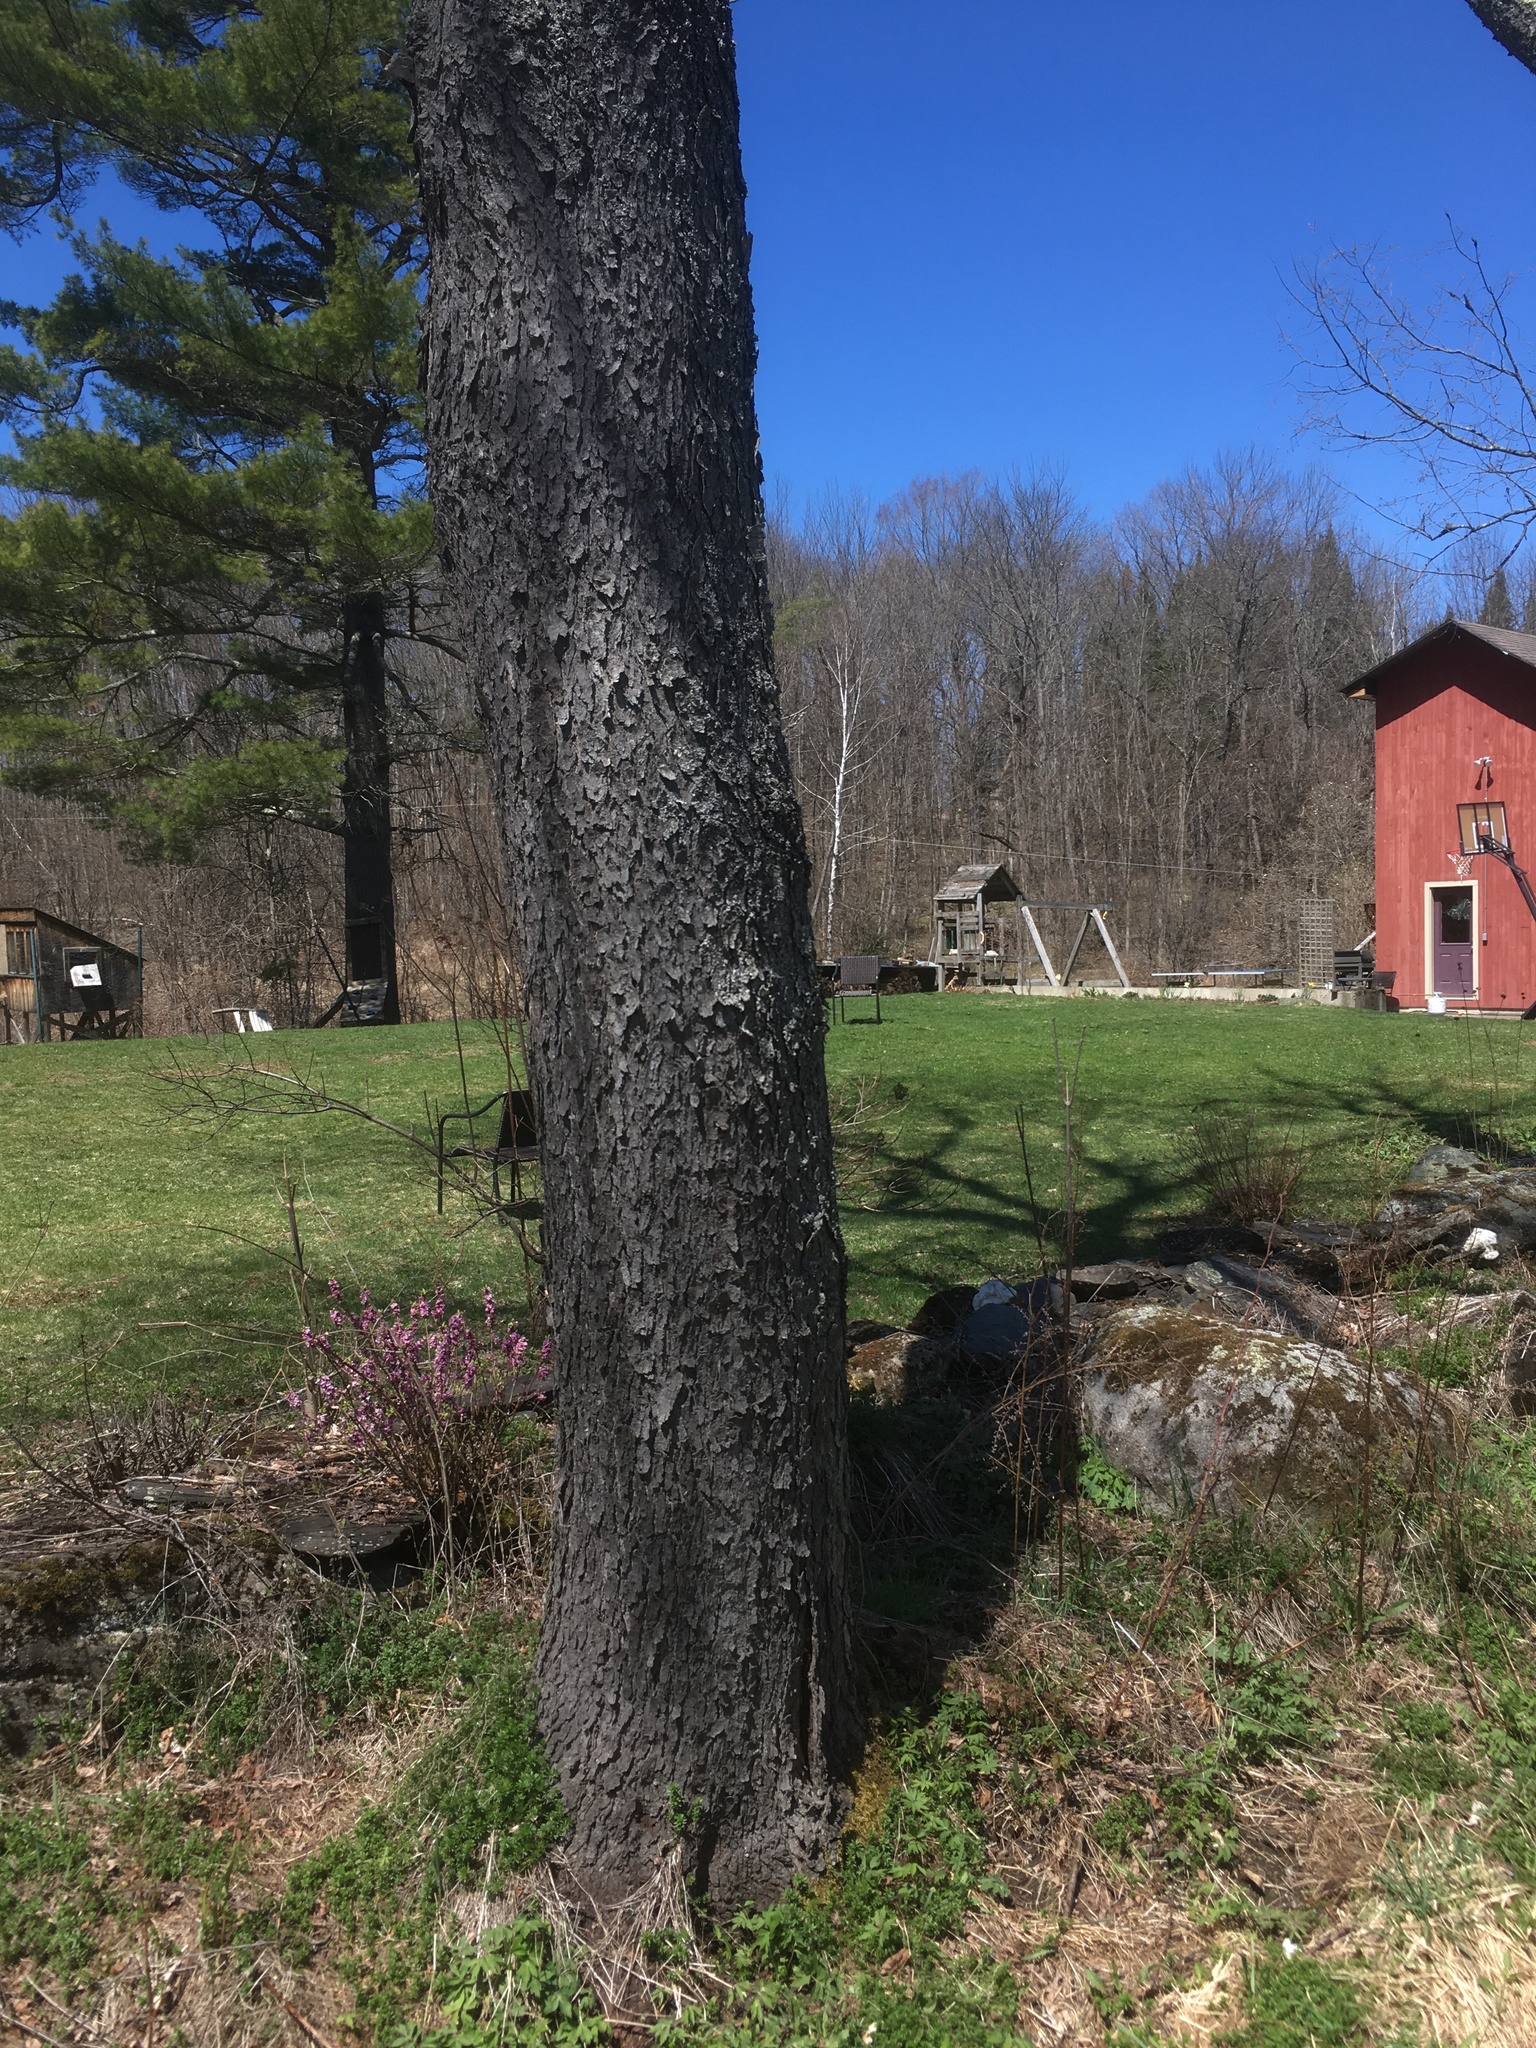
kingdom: Plantae
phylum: Tracheophyta
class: Magnoliopsida
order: Rosales
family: Rosaceae
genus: Prunus
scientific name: Prunus serotina
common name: Black cherry
